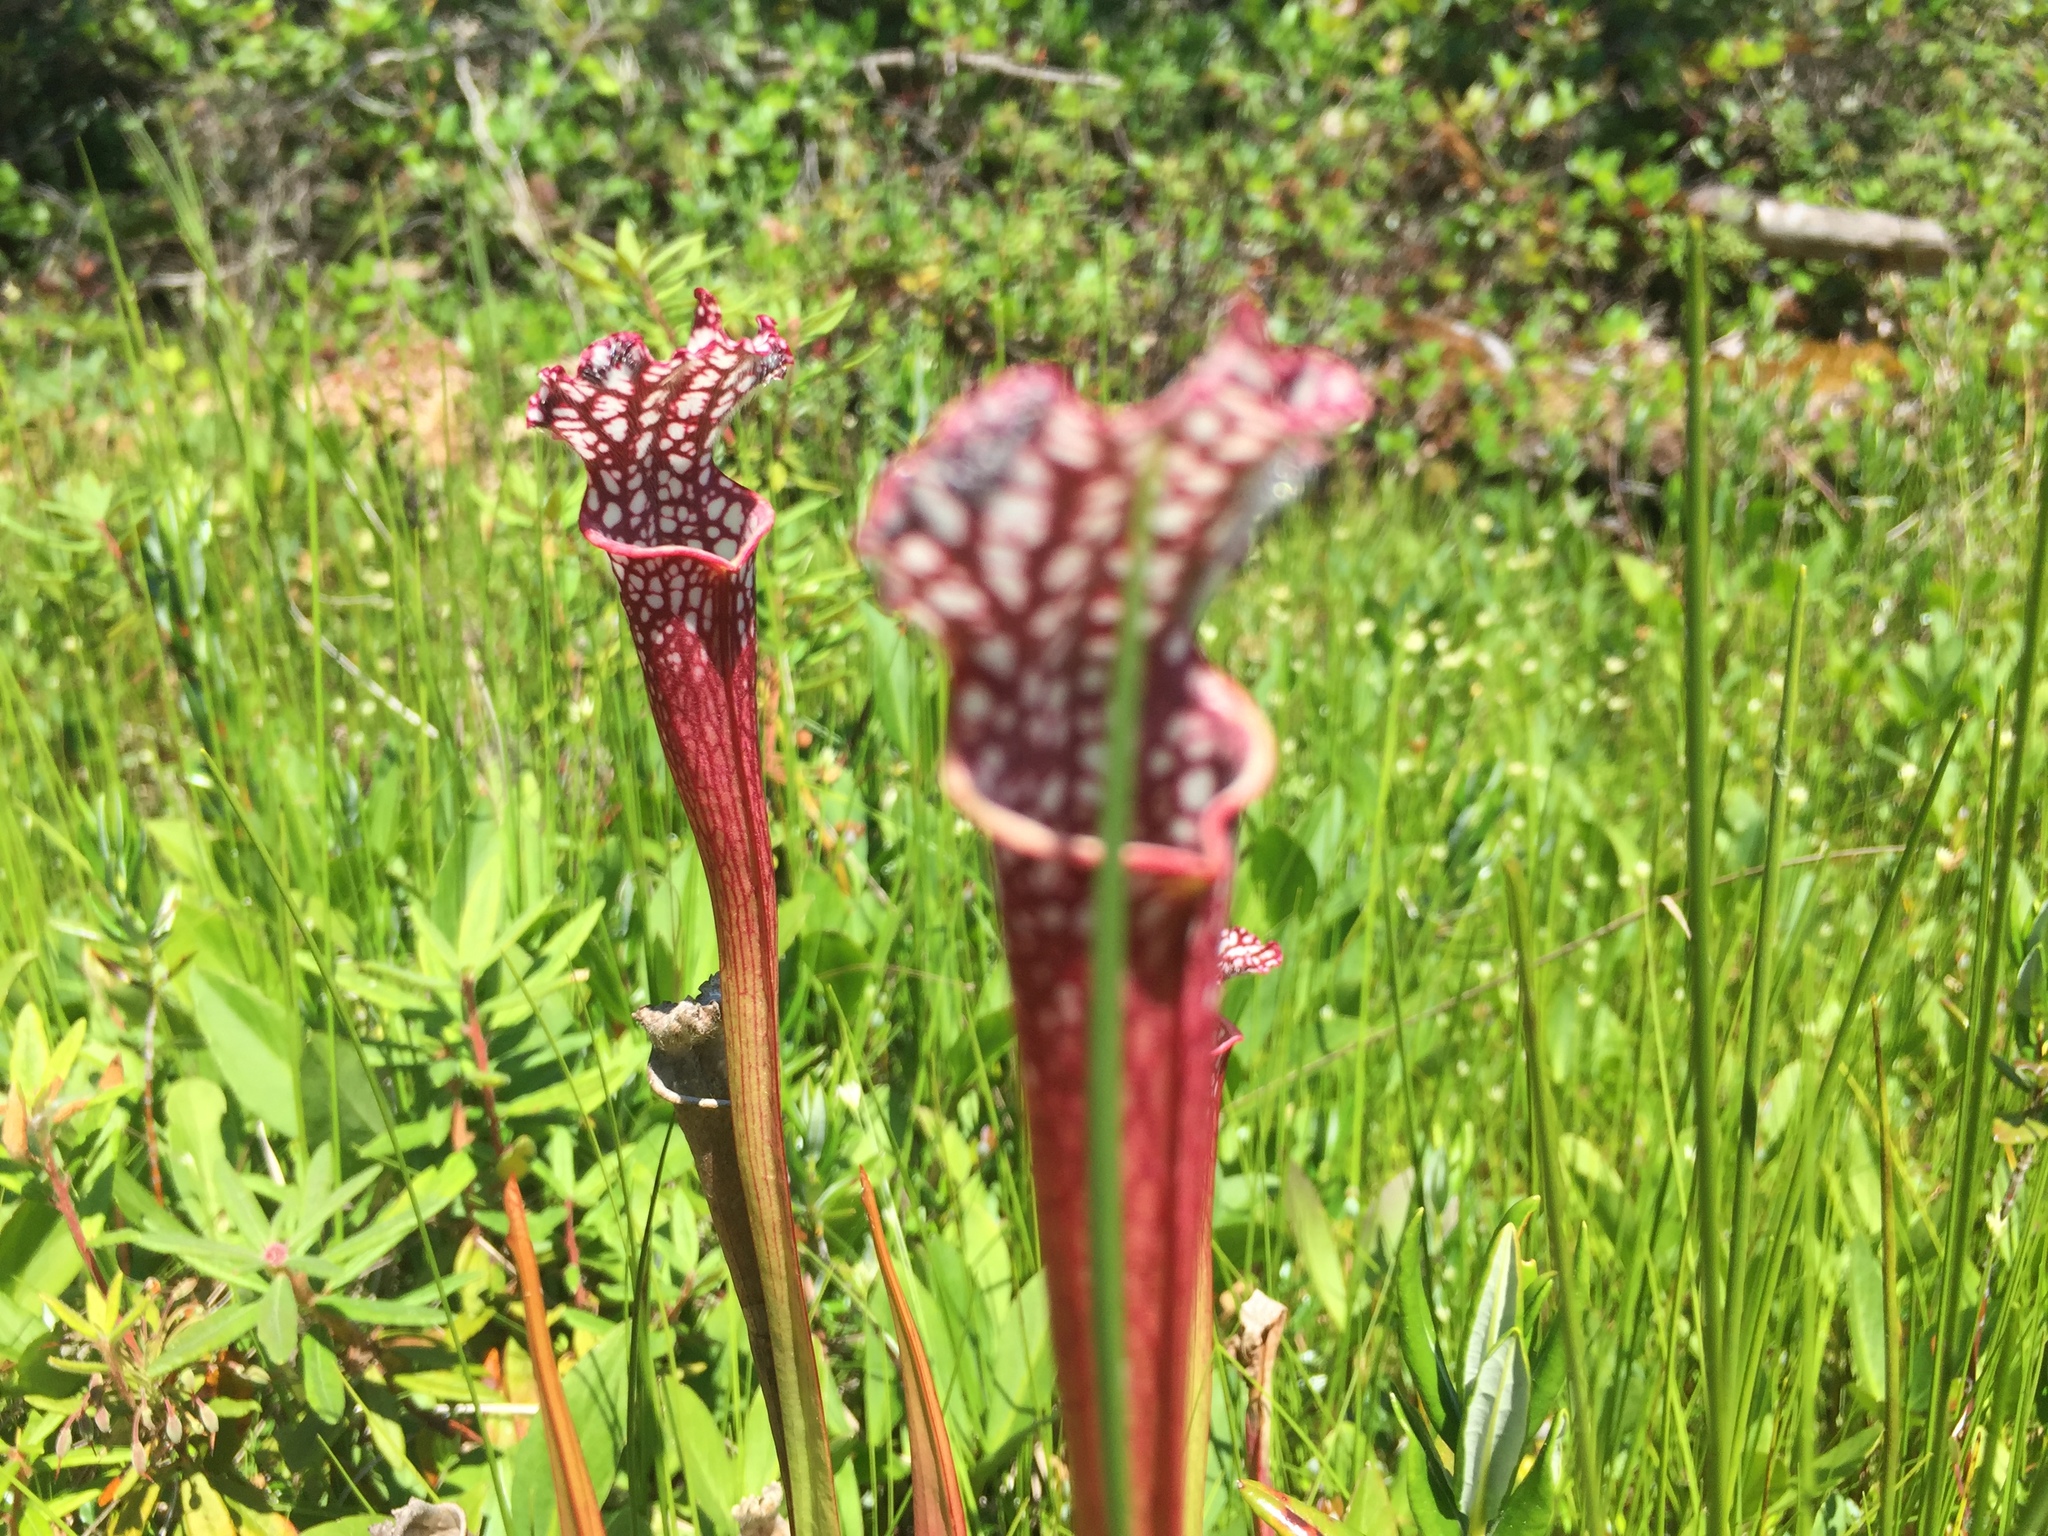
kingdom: Plantae
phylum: Tracheophyta
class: Magnoliopsida
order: Ericales
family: Sarraceniaceae
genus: Sarracenia
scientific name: Sarracenia leucophylla
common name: Purple trumpetleaf
